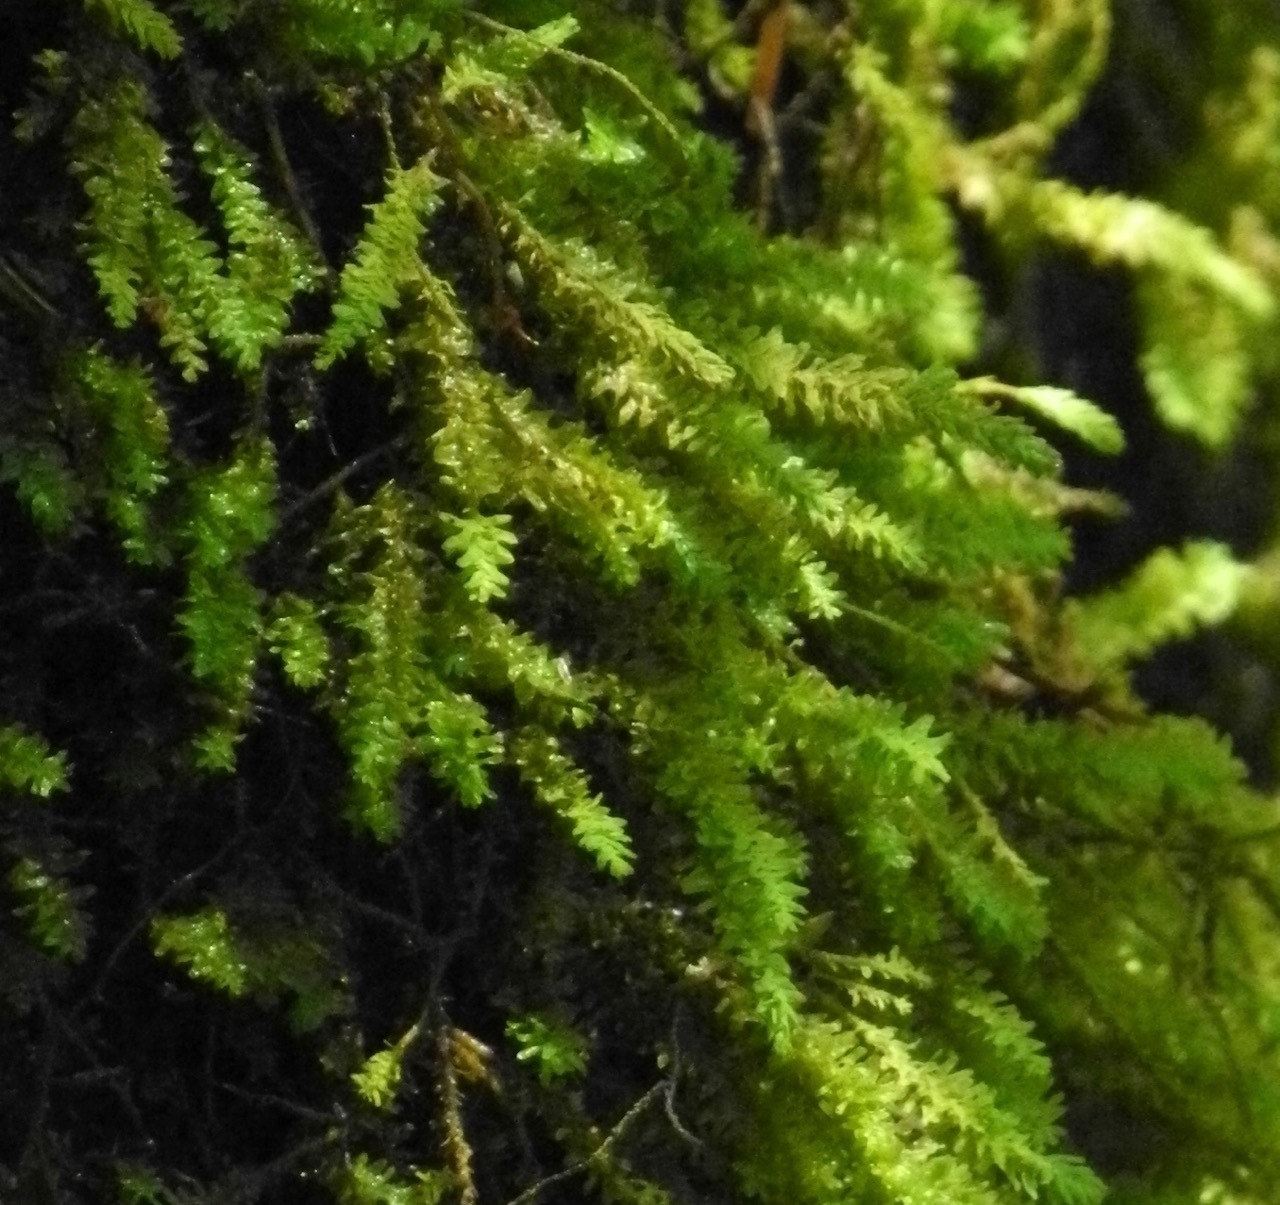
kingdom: Plantae
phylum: Bryophyta
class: Bryopsida
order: Hypnales
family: Neckeraceae
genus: Pseudanomodon
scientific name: Pseudanomodon attenuatus
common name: Tree-skirt moss
